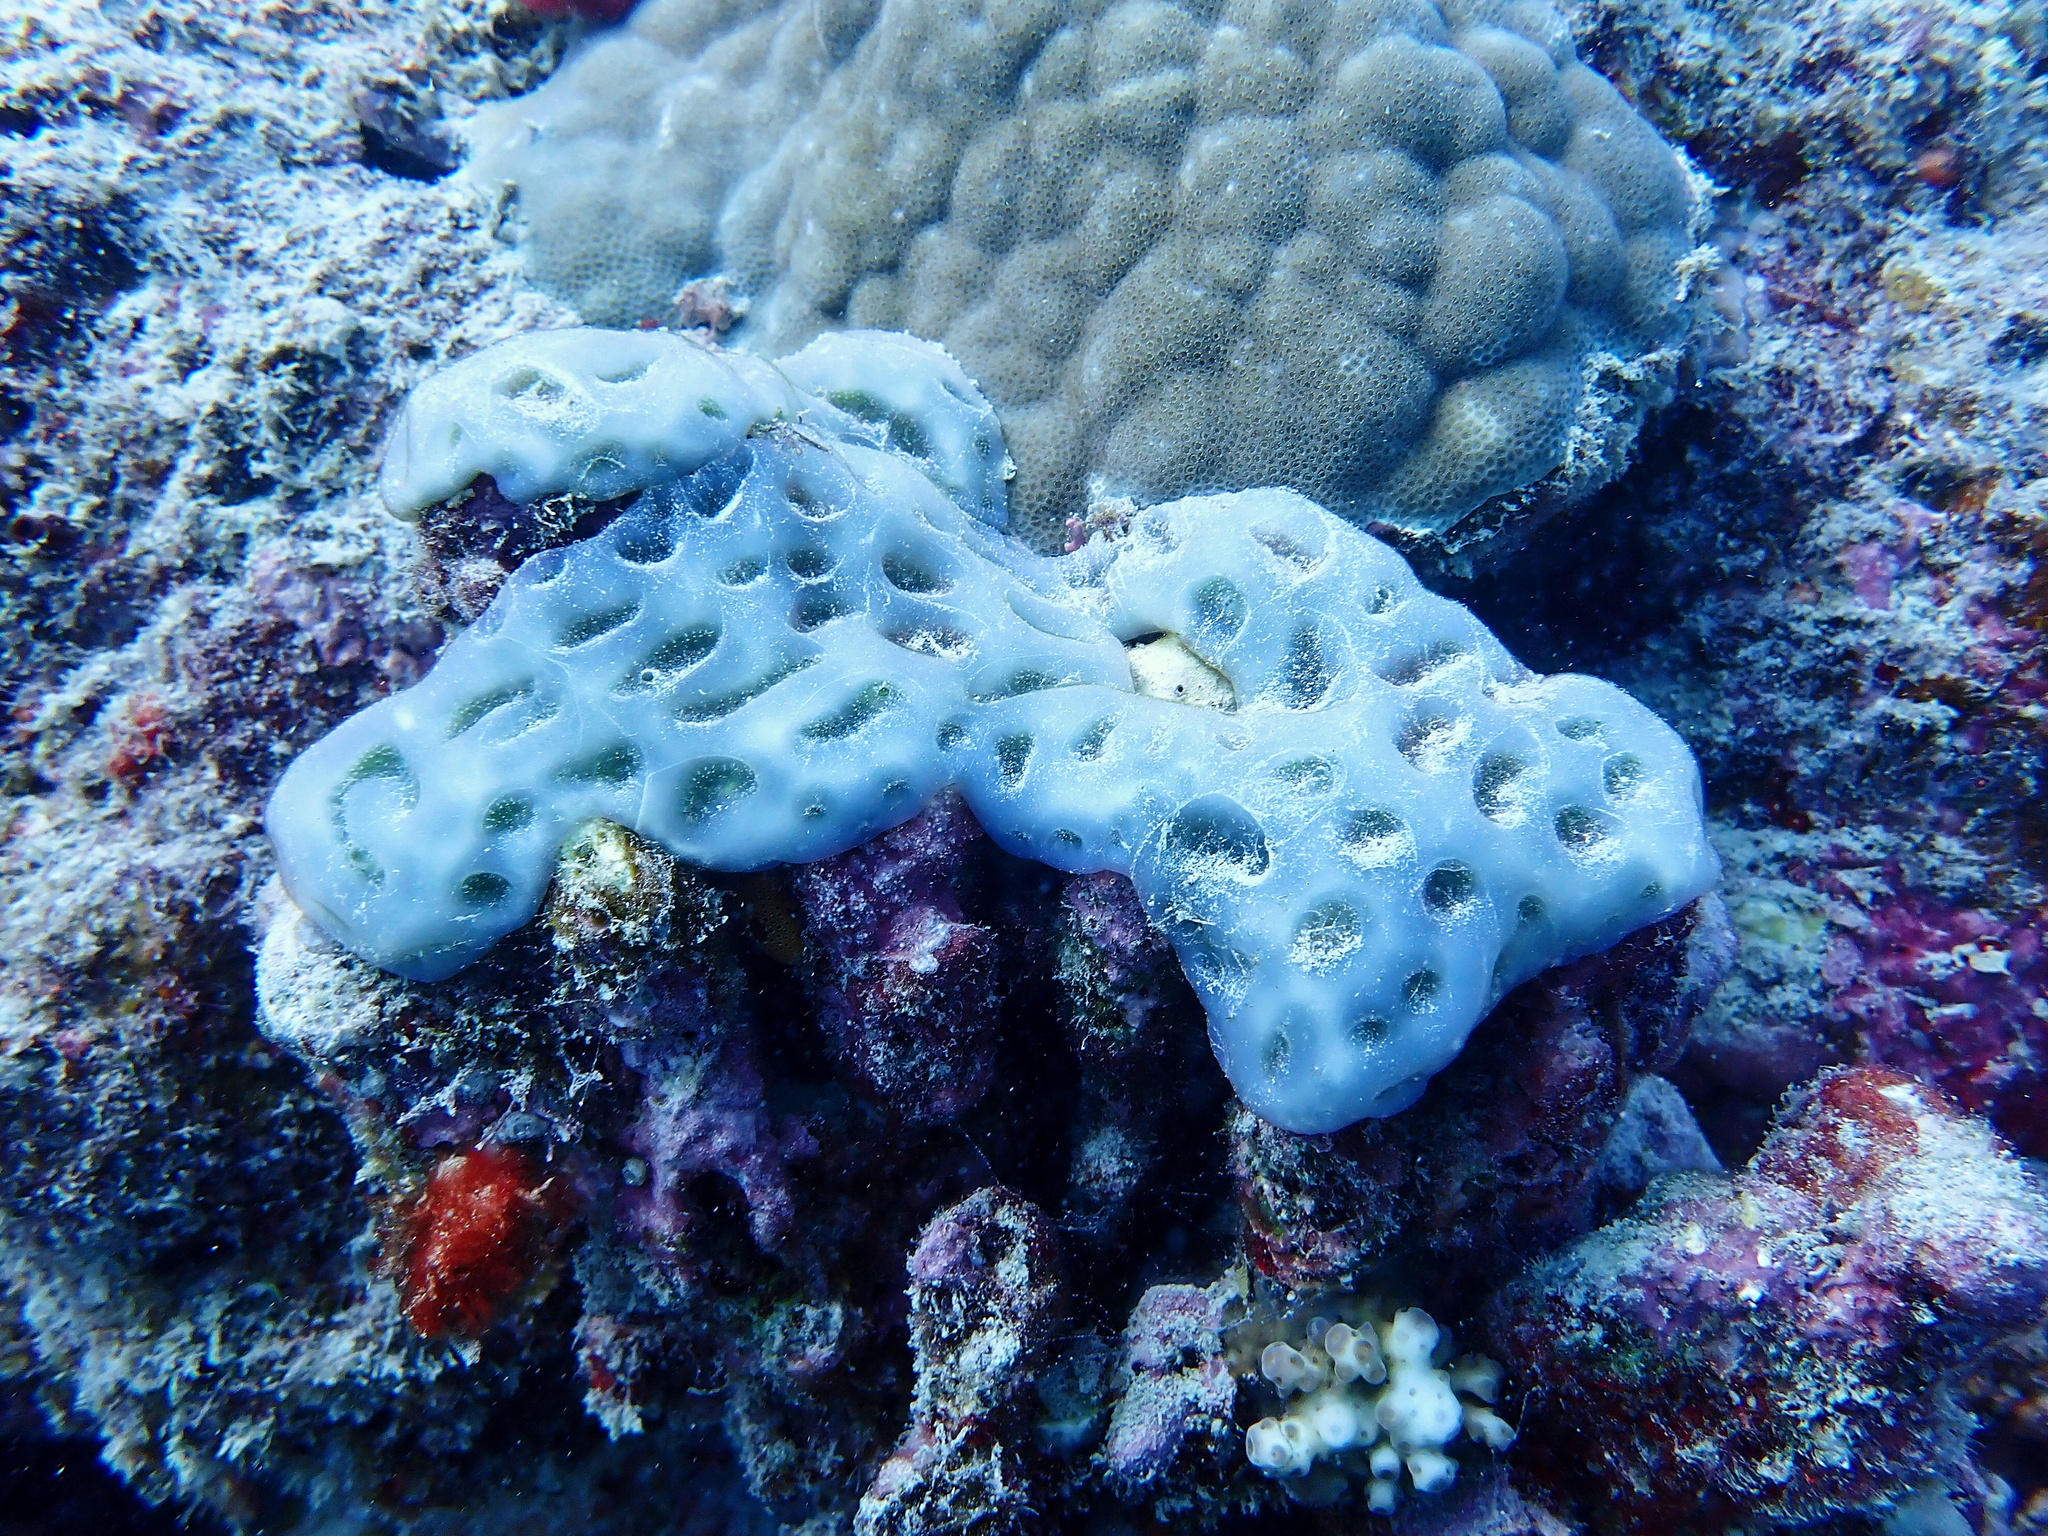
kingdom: Animalia
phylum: Chordata
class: Ascidiacea
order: Aplousobranchia
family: Didemnidae
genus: Lissoclinum
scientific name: Lissoclinum patella
